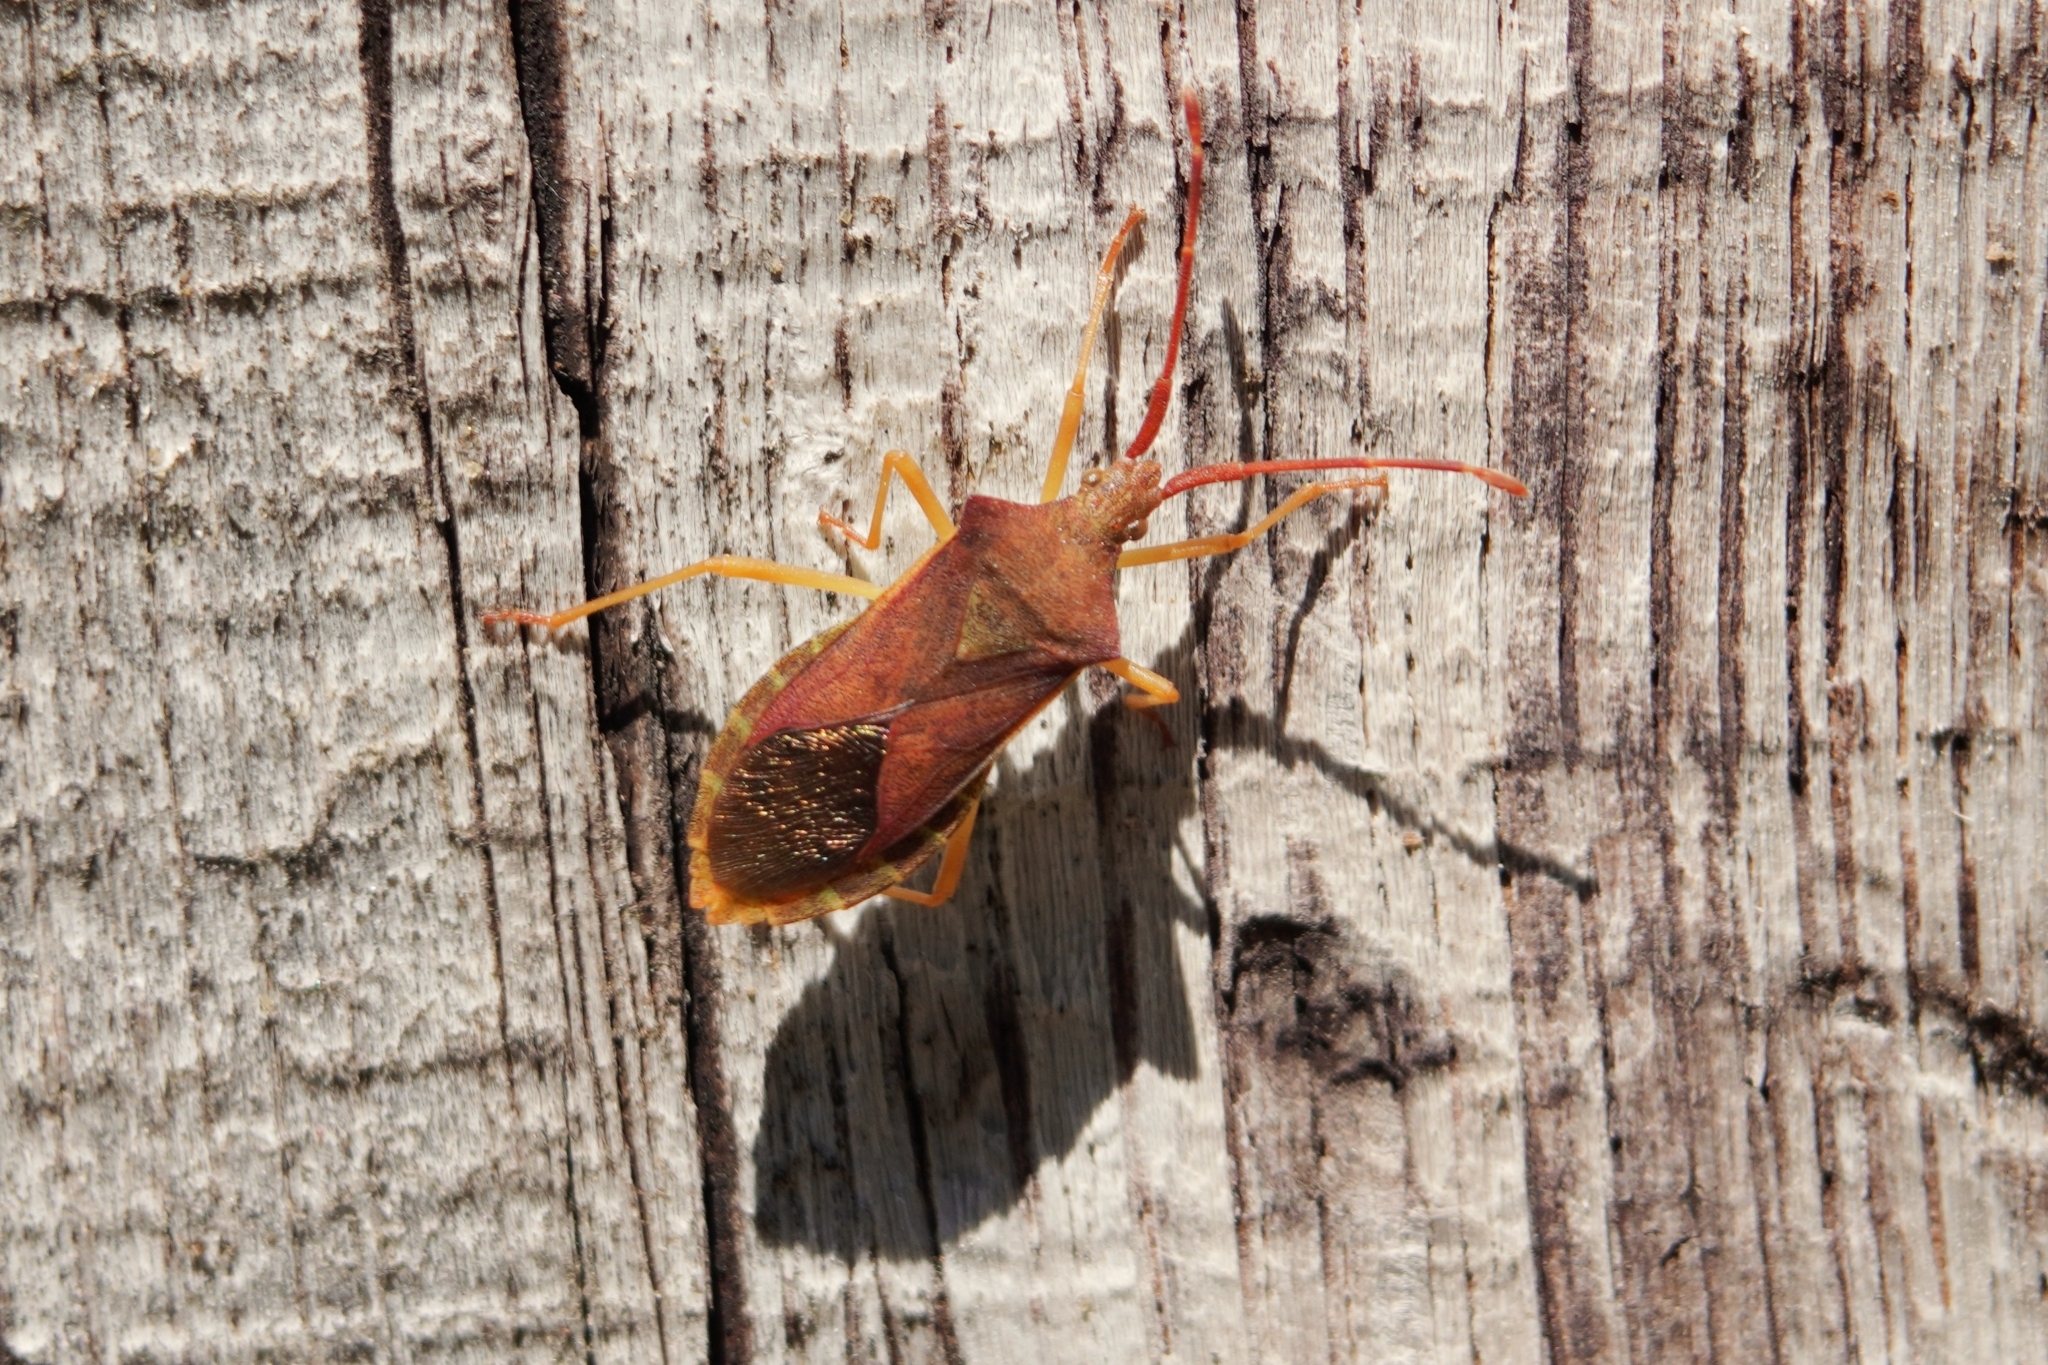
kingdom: Animalia
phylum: Arthropoda
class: Insecta
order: Hemiptera
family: Coreidae
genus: Gonocerus
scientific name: Gonocerus acuteangulatus
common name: Box bug
